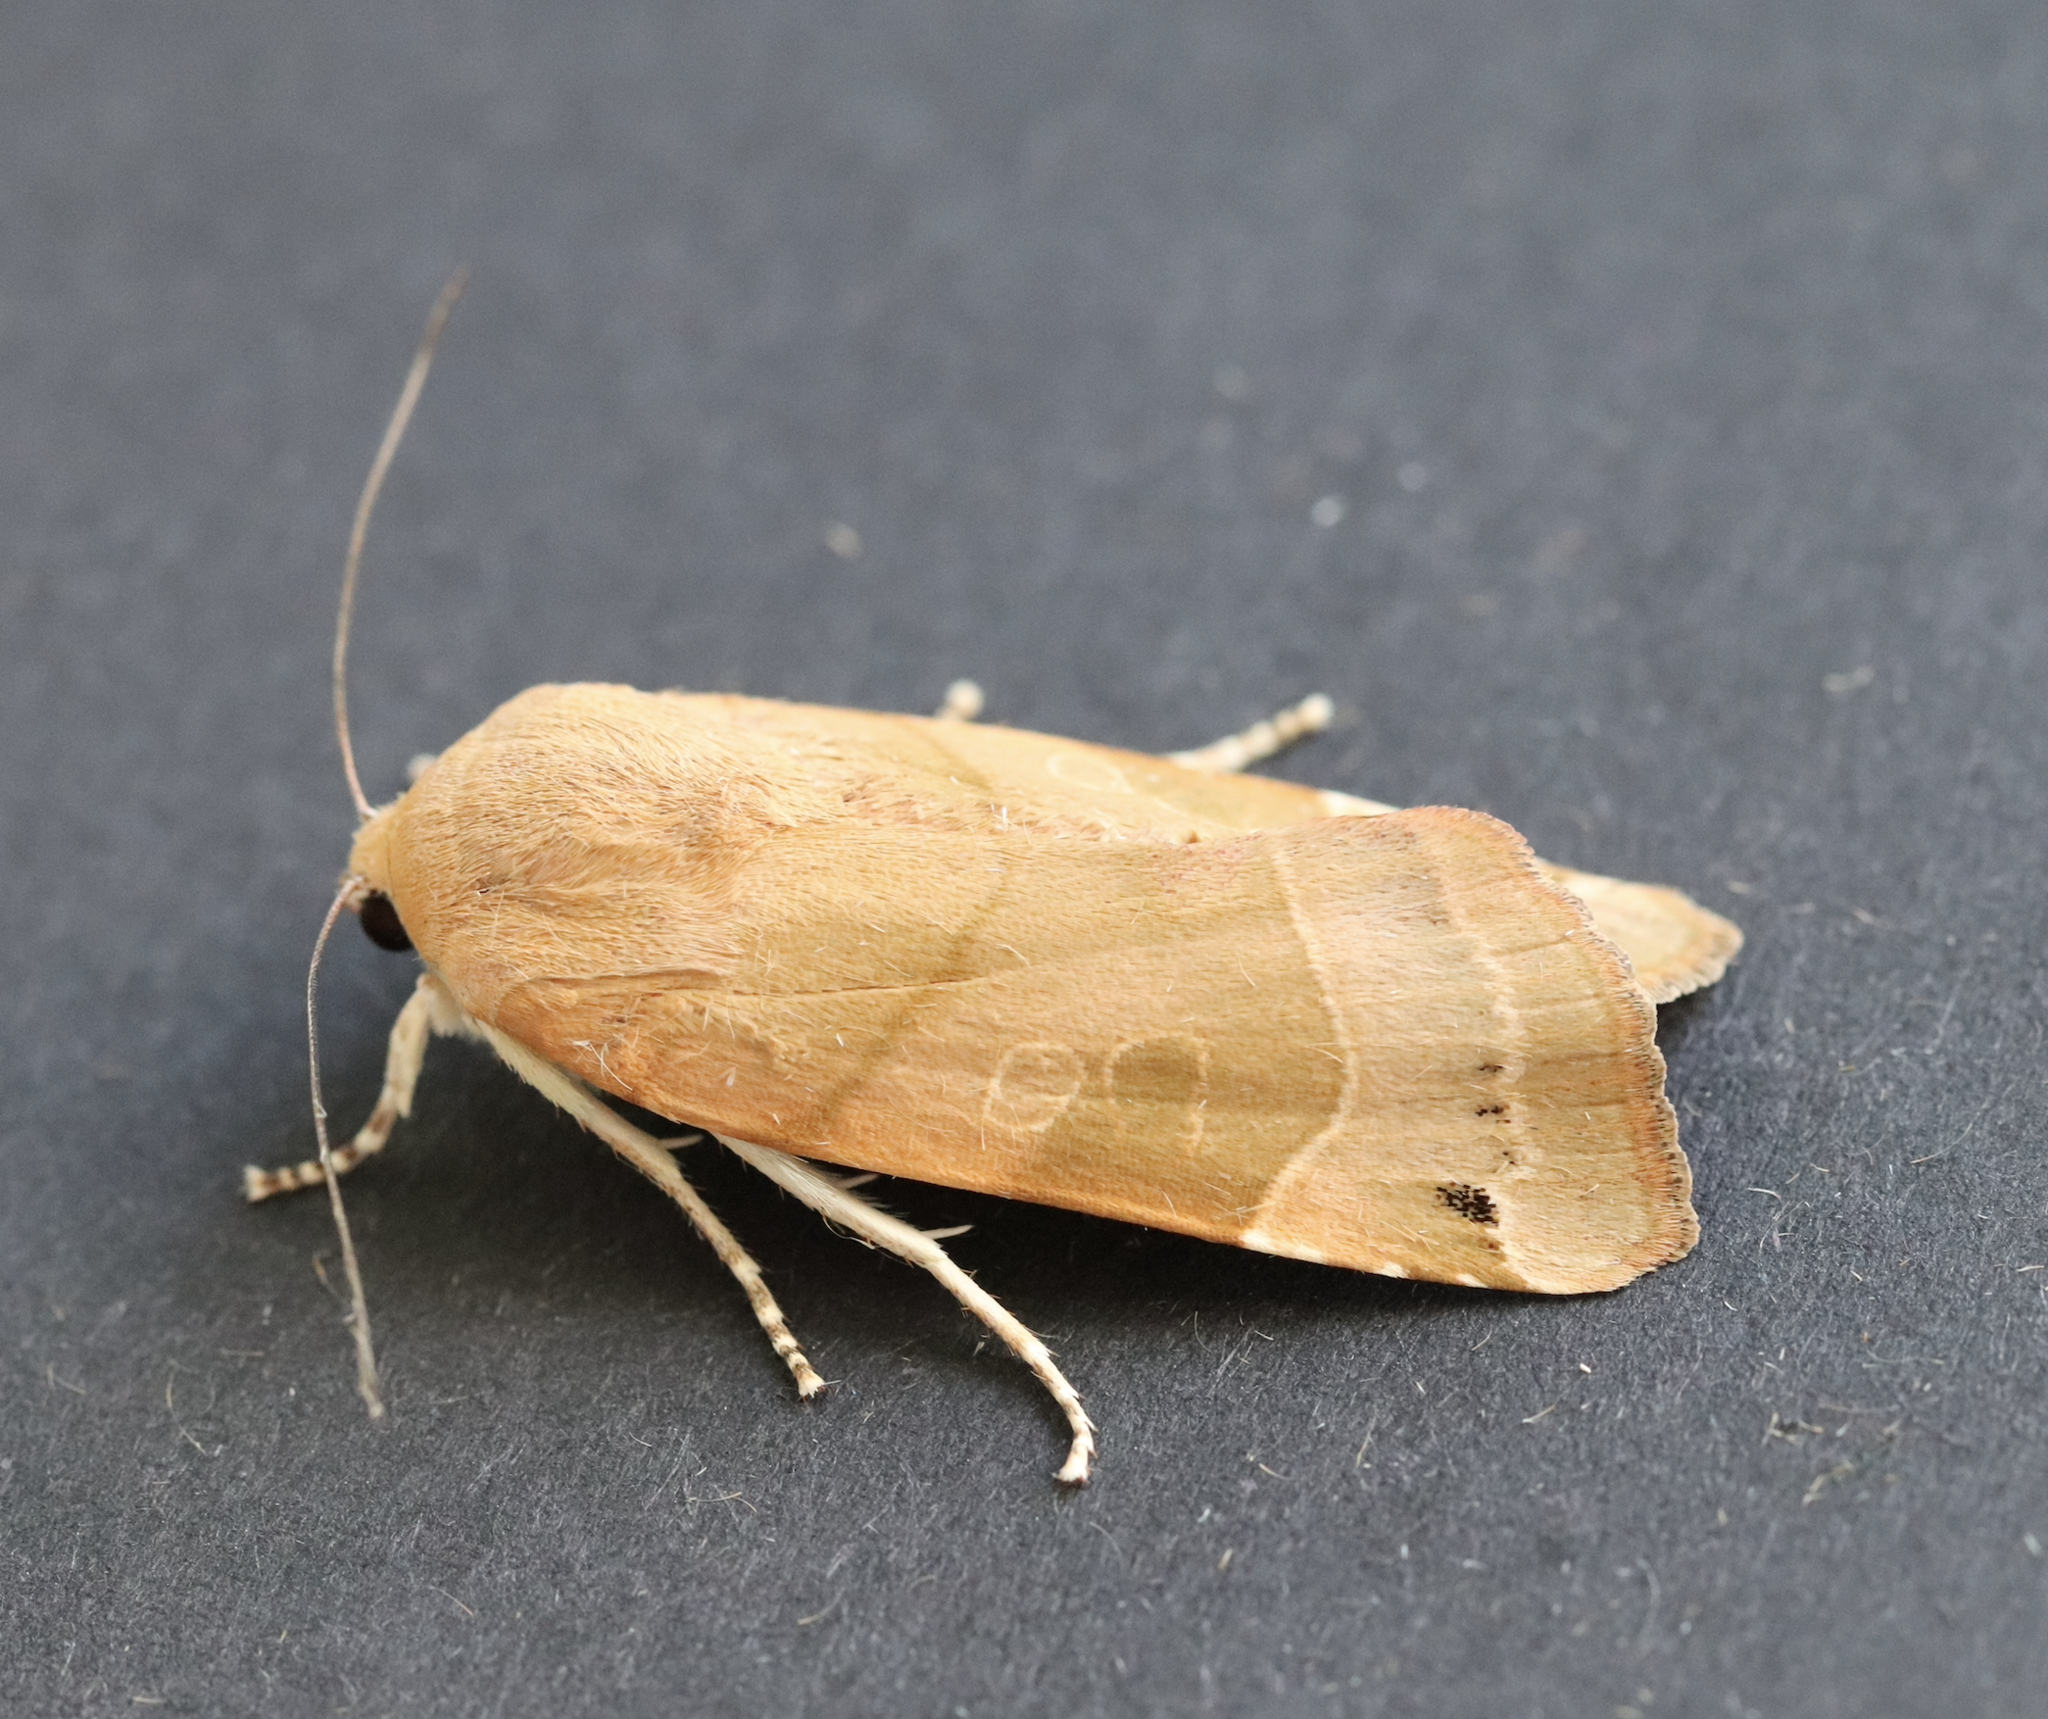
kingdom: Animalia
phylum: Arthropoda
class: Insecta
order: Lepidoptera
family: Noctuidae
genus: Noctua
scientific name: Noctua fimbriata
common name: Broad-bordered yellow underwing
